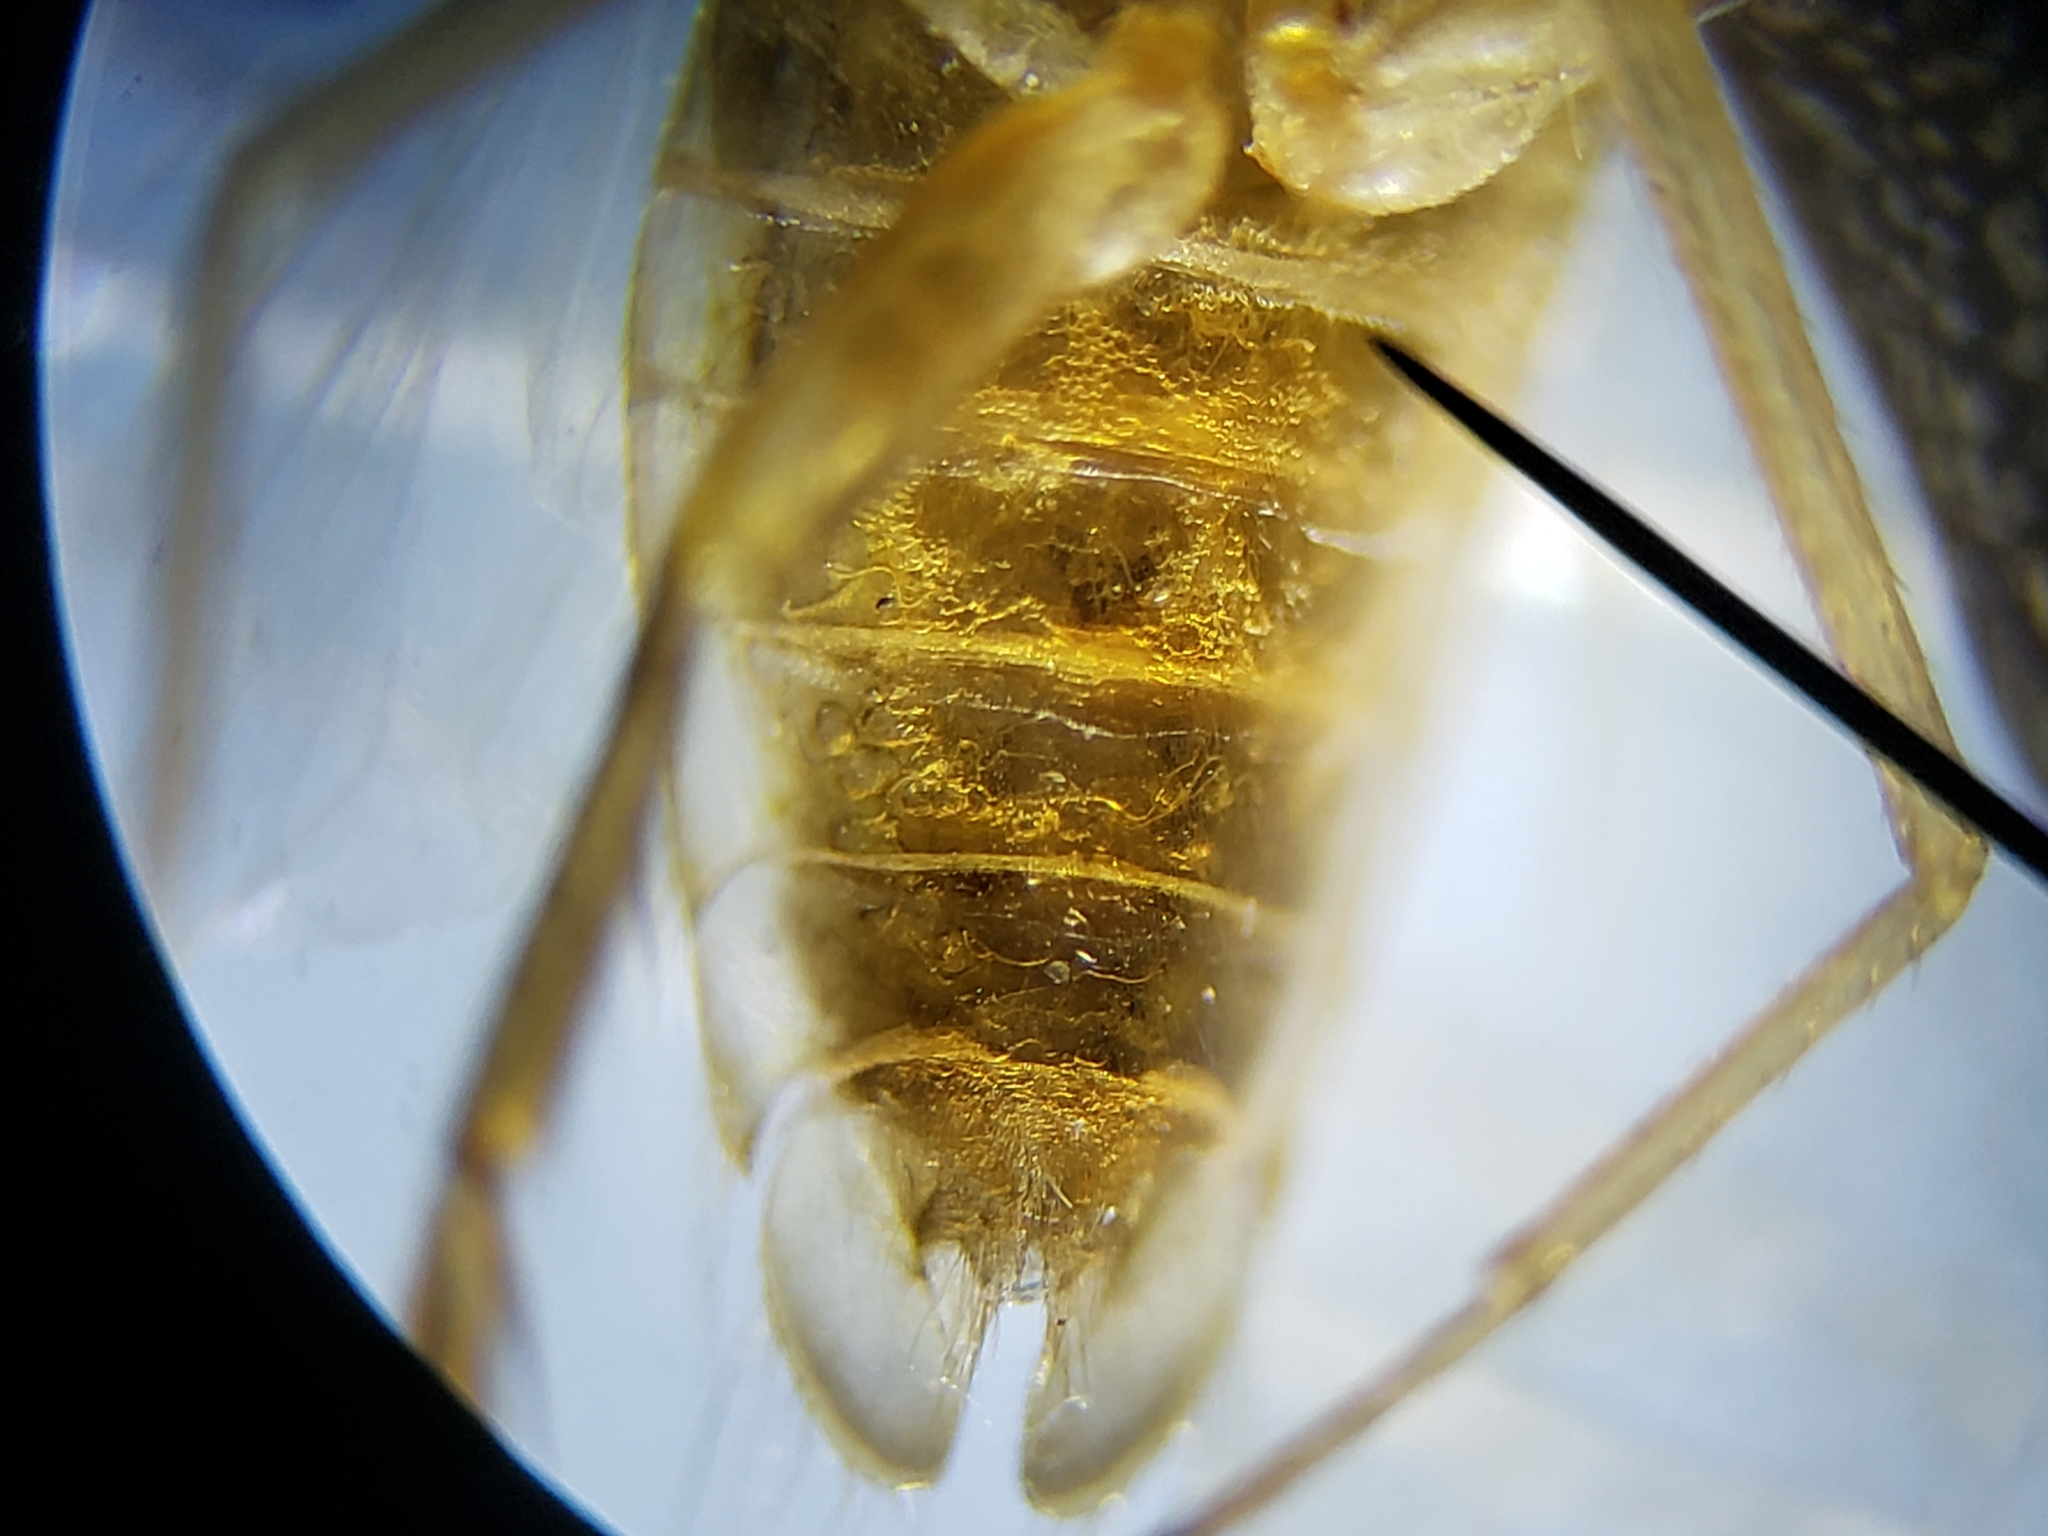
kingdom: Animalia
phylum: Arthropoda
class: Insecta
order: Hemiptera
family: Corixidae
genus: Sigara
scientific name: Sigara
